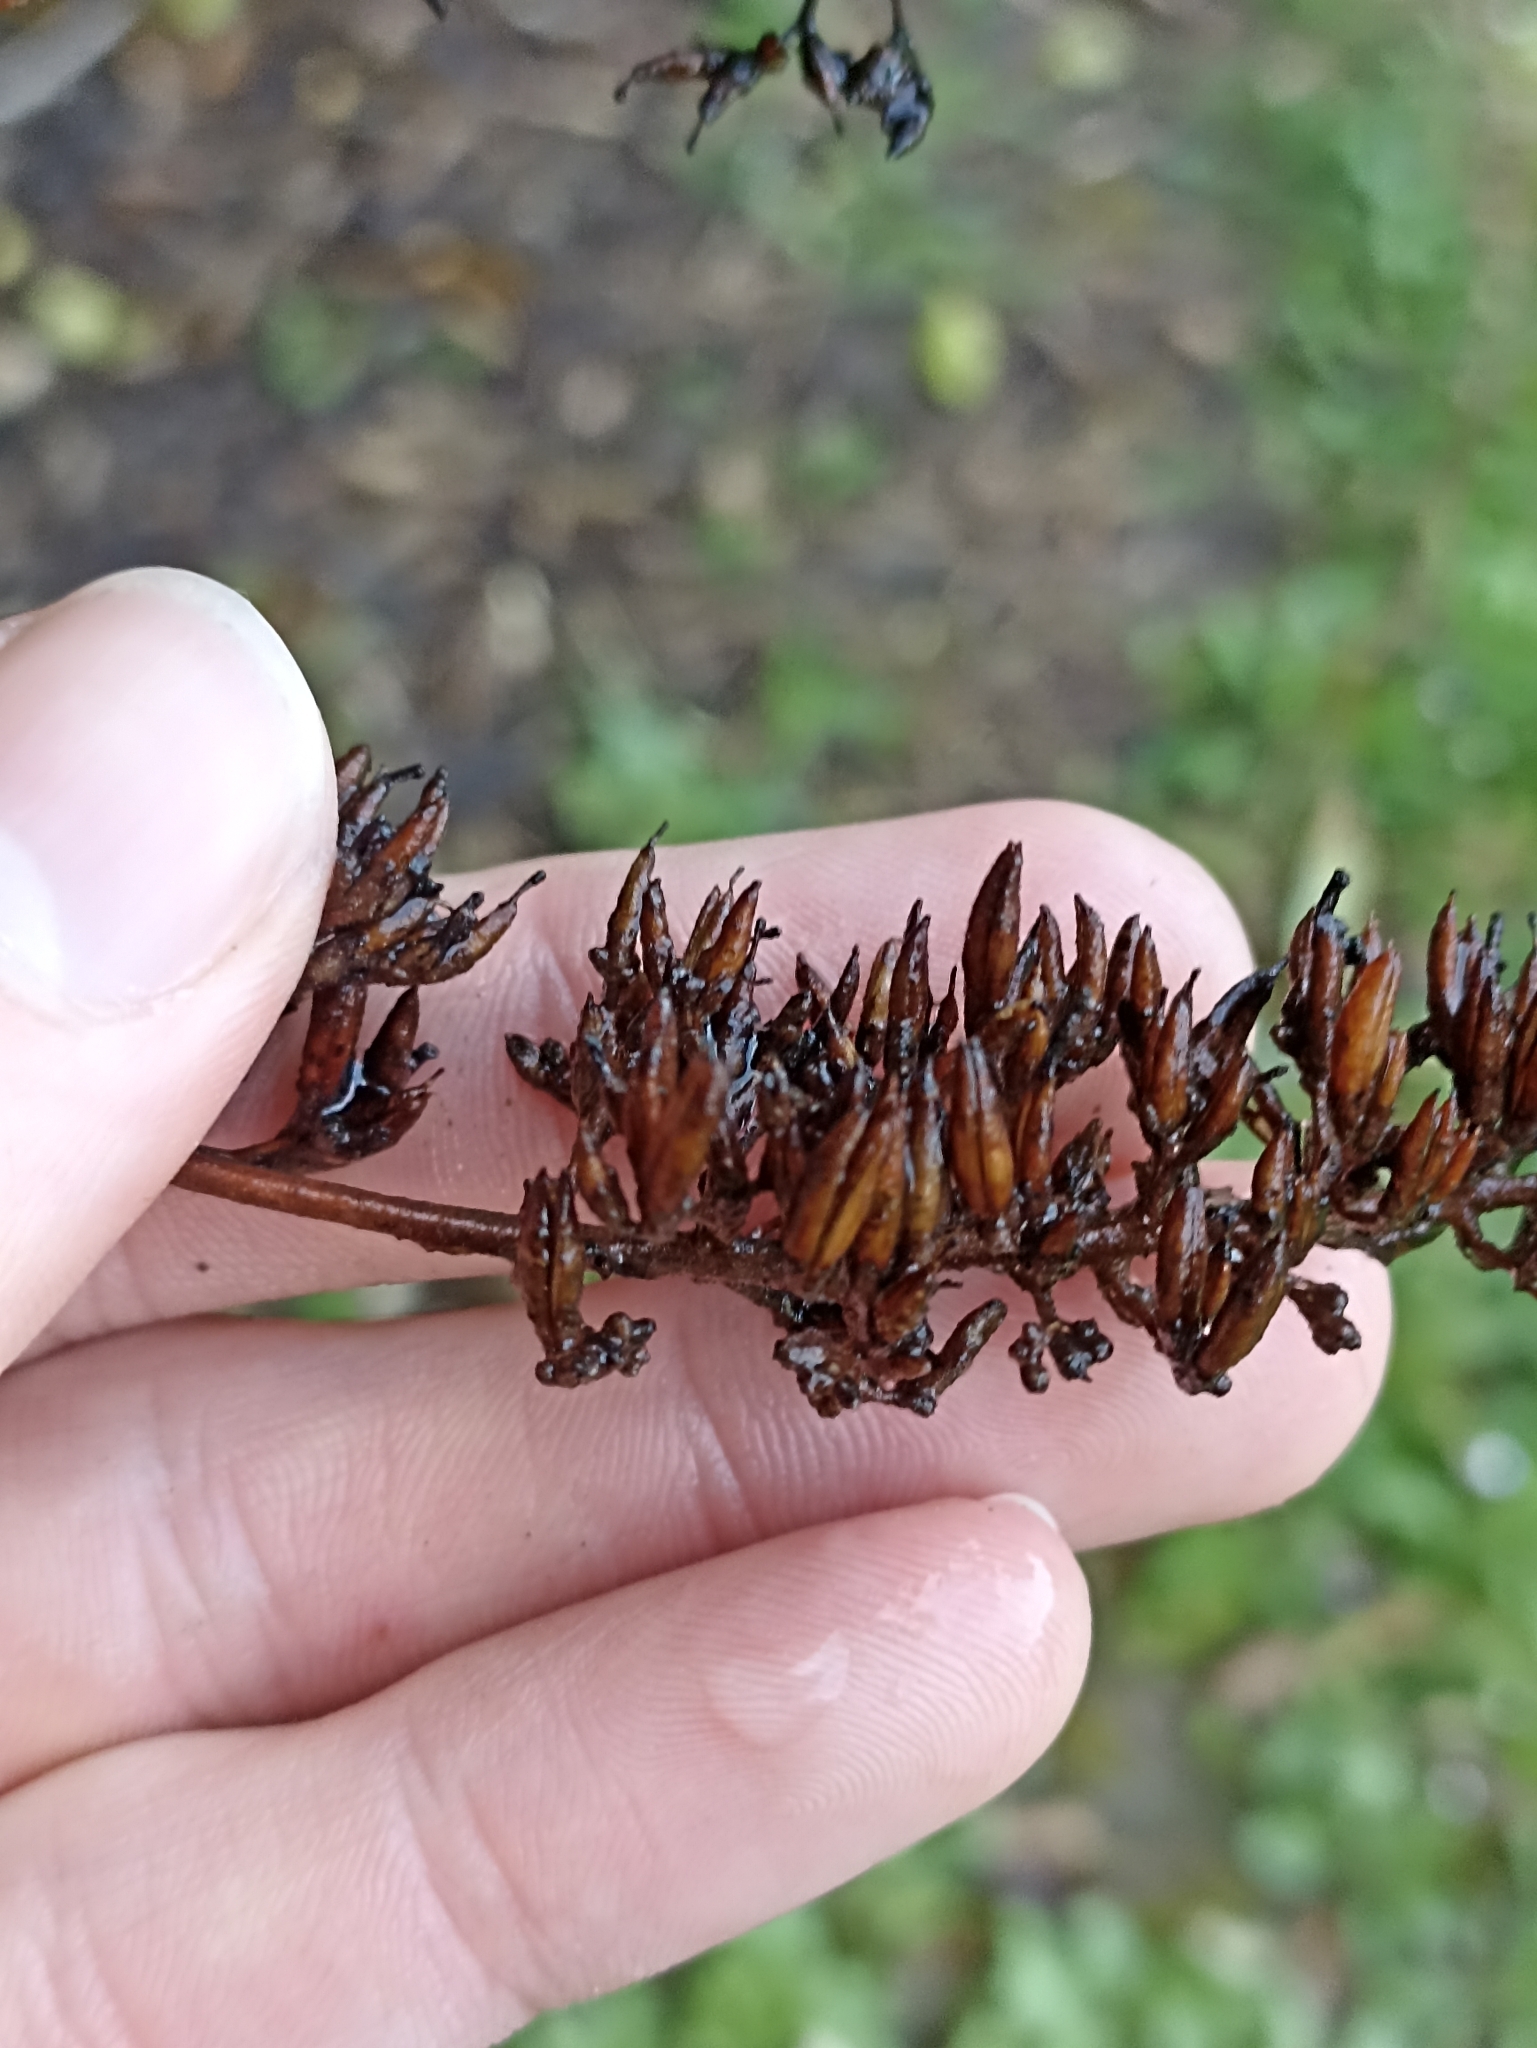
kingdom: Plantae
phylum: Tracheophyta
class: Magnoliopsida
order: Lamiales
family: Scrophulariaceae
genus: Buddleja
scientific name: Buddleja davidii
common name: Butterfly-bush
